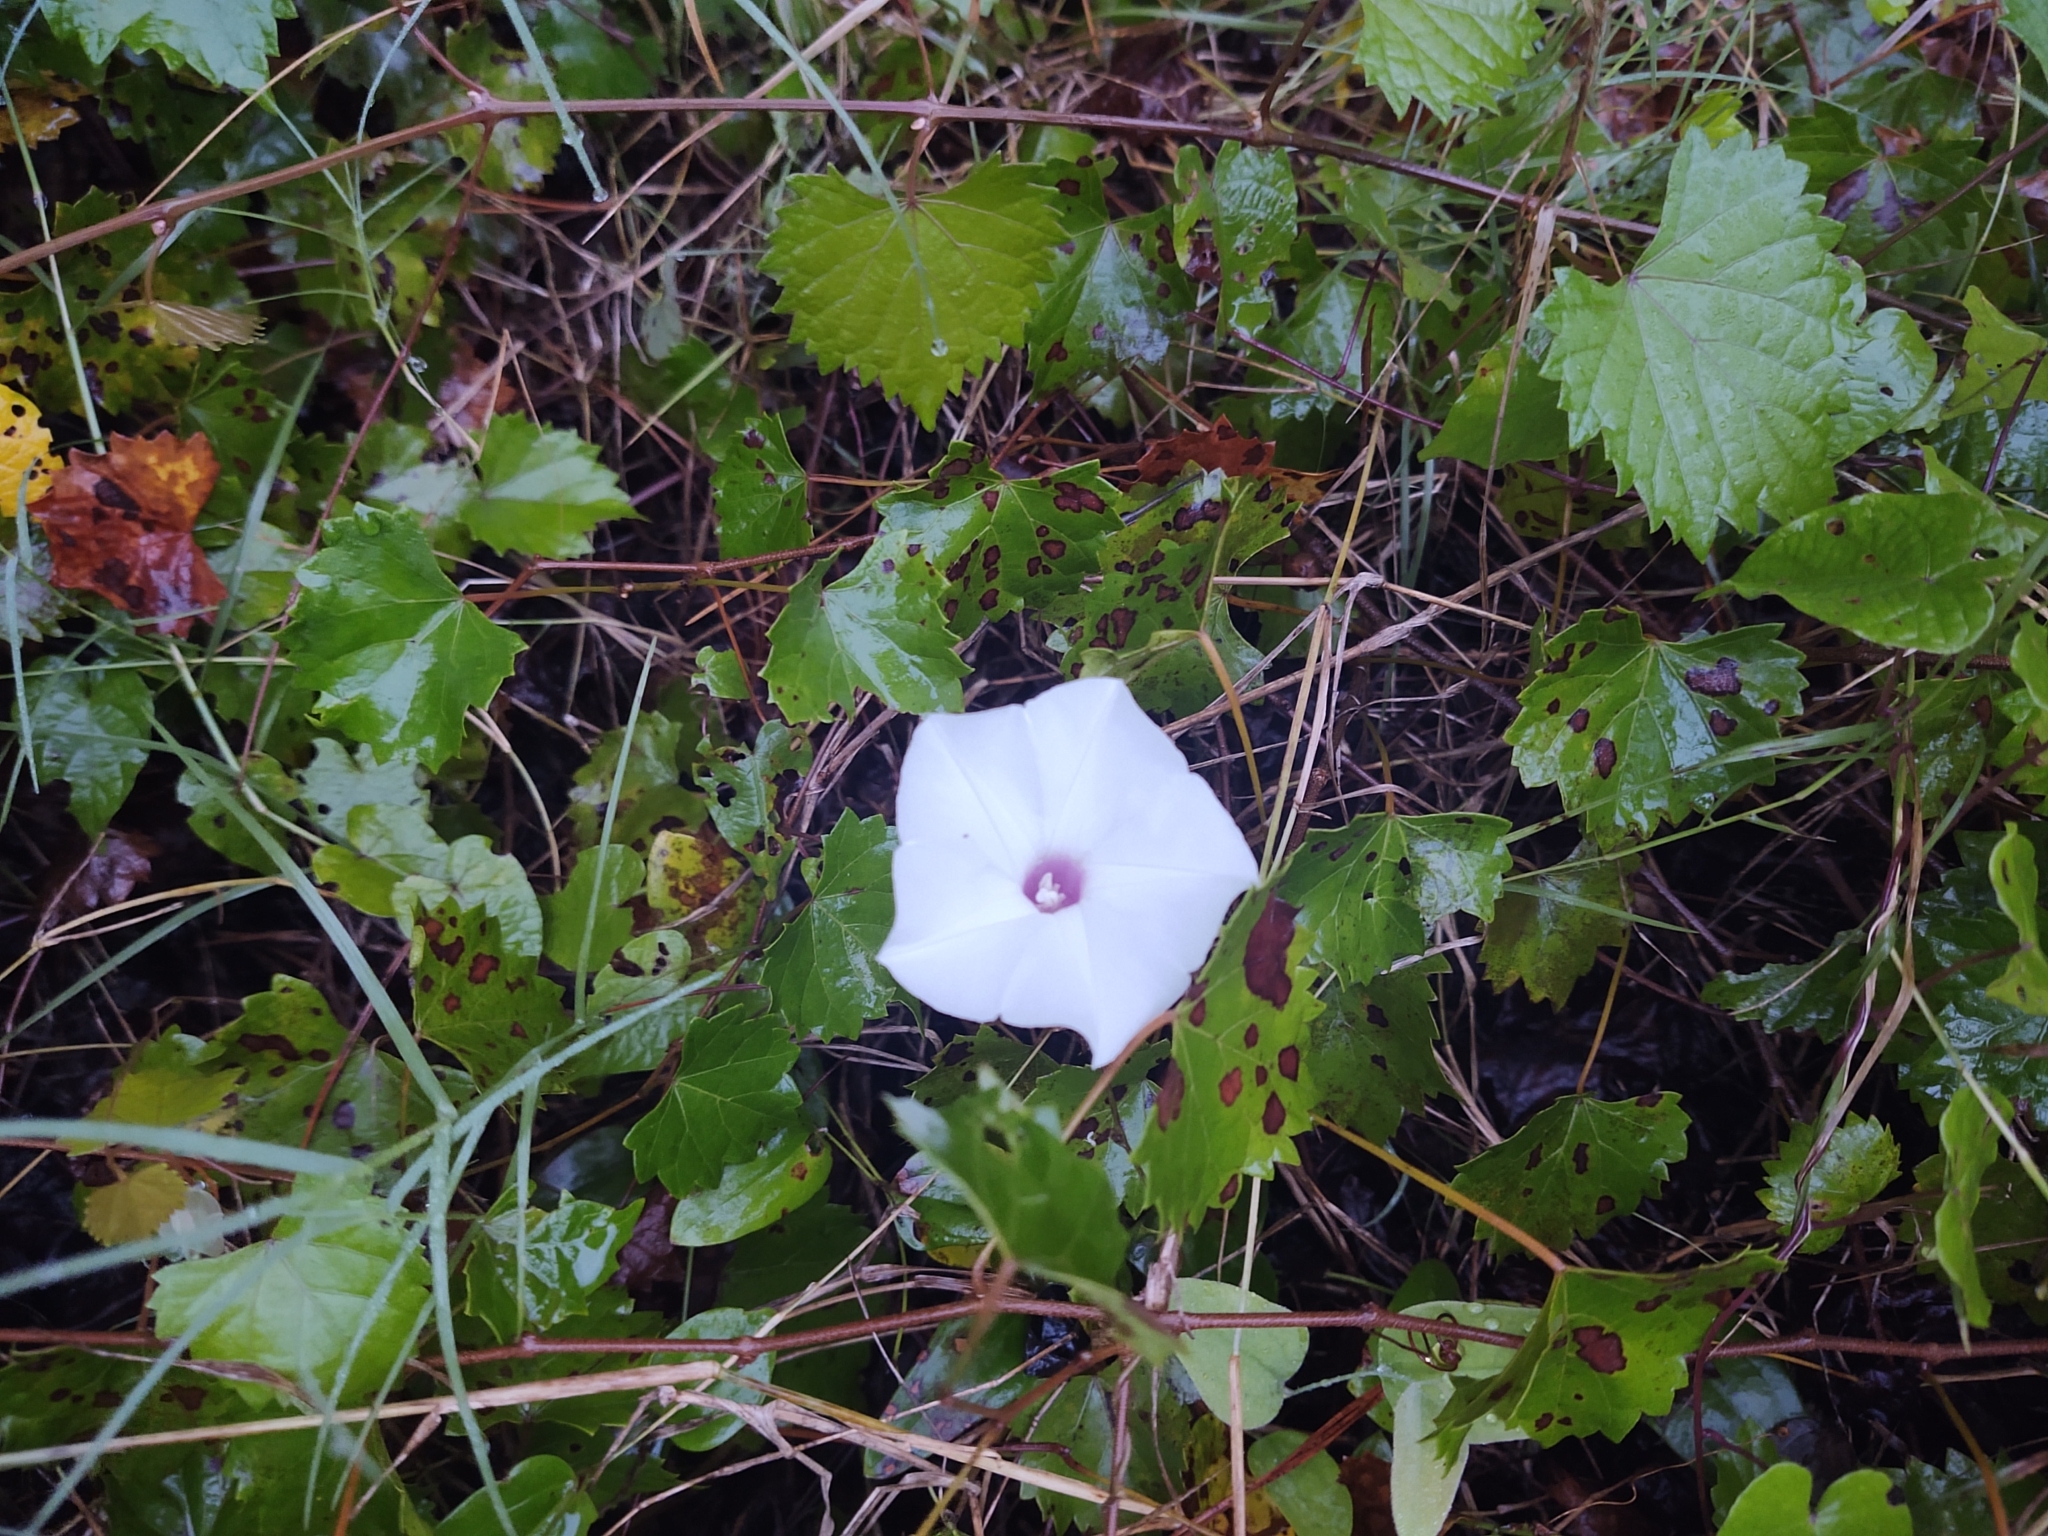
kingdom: Plantae
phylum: Tracheophyta
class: Magnoliopsida
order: Solanales
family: Convolvulaceae
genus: Ipomoea
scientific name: Ipomoea pandurata
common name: Man-of-the-earth
